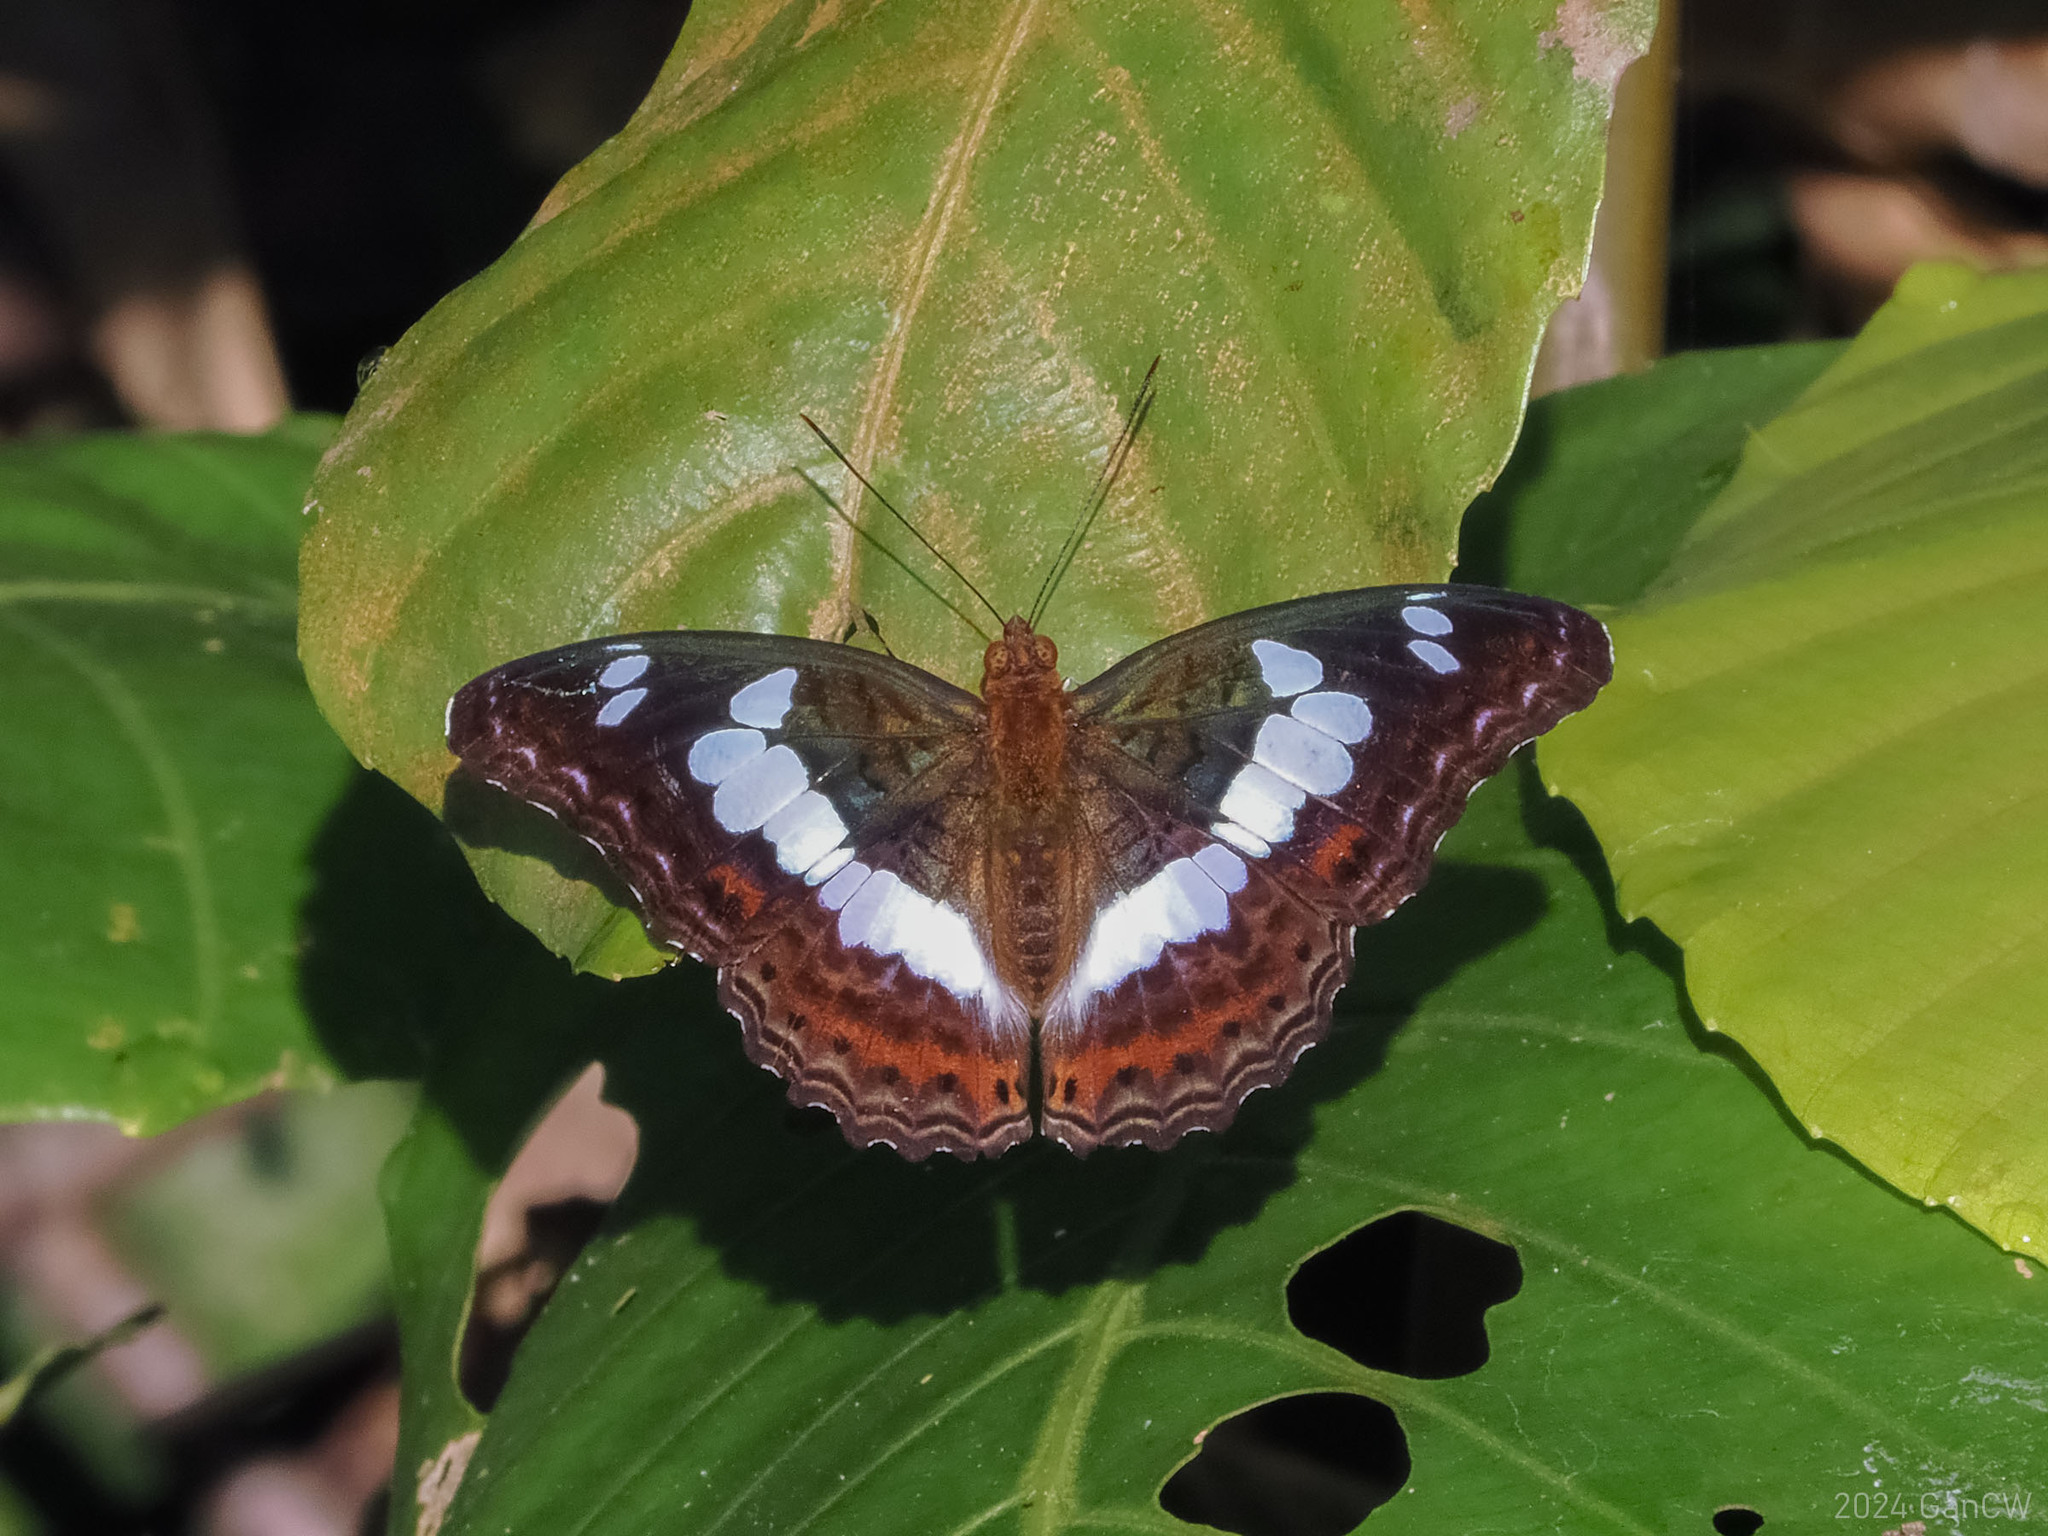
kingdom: Animalia
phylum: Arthropoda
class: Insecta
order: Lepidoptera
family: Nymphalidae
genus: Limenitis
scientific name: Limenitis Moduza procris
